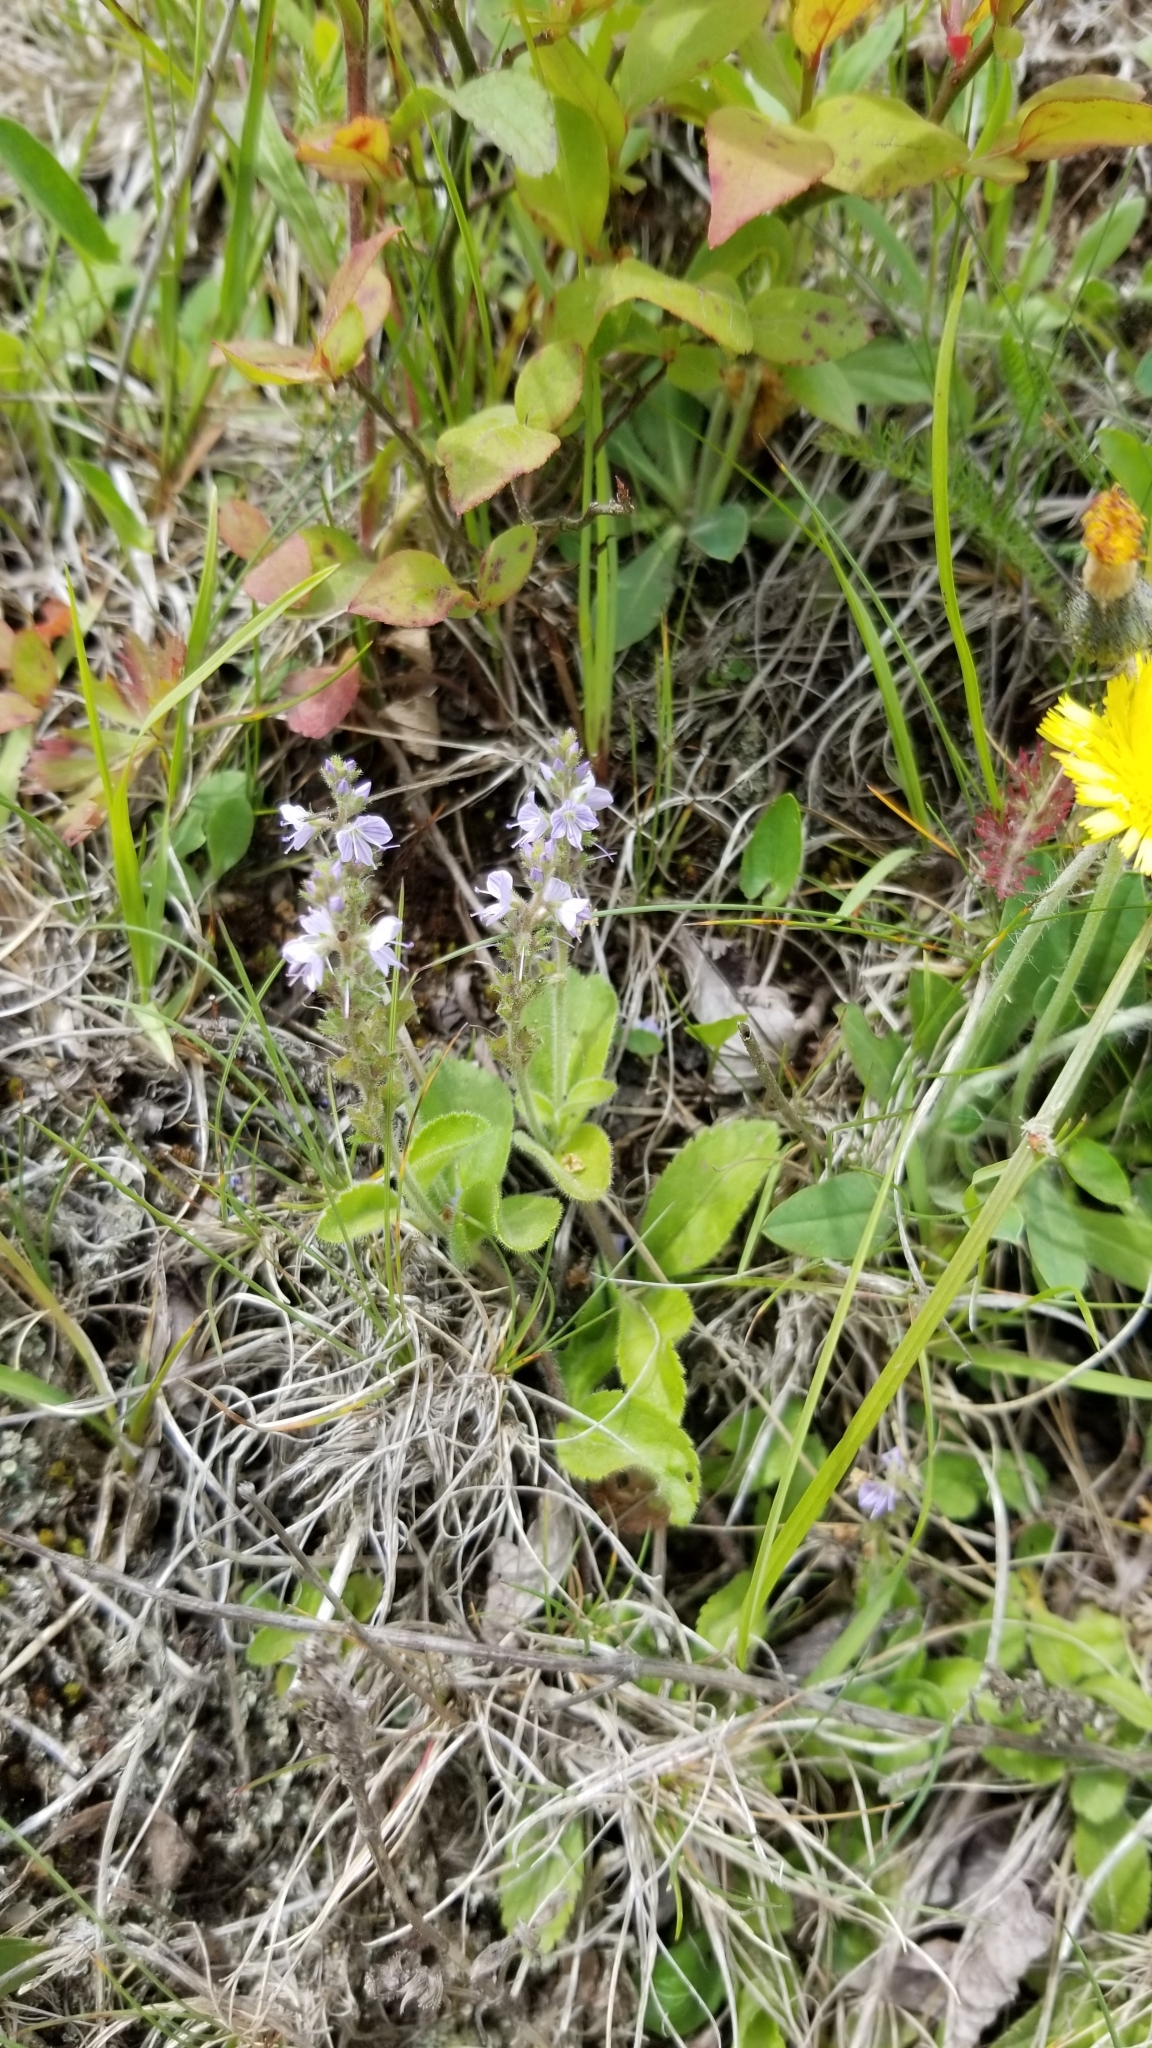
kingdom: Plantae
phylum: Tracheophyta
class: Magnoliopsida
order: Lamiales
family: Plantaginaceae
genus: Veronica
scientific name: Veronica officinalis
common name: Common speedwell
